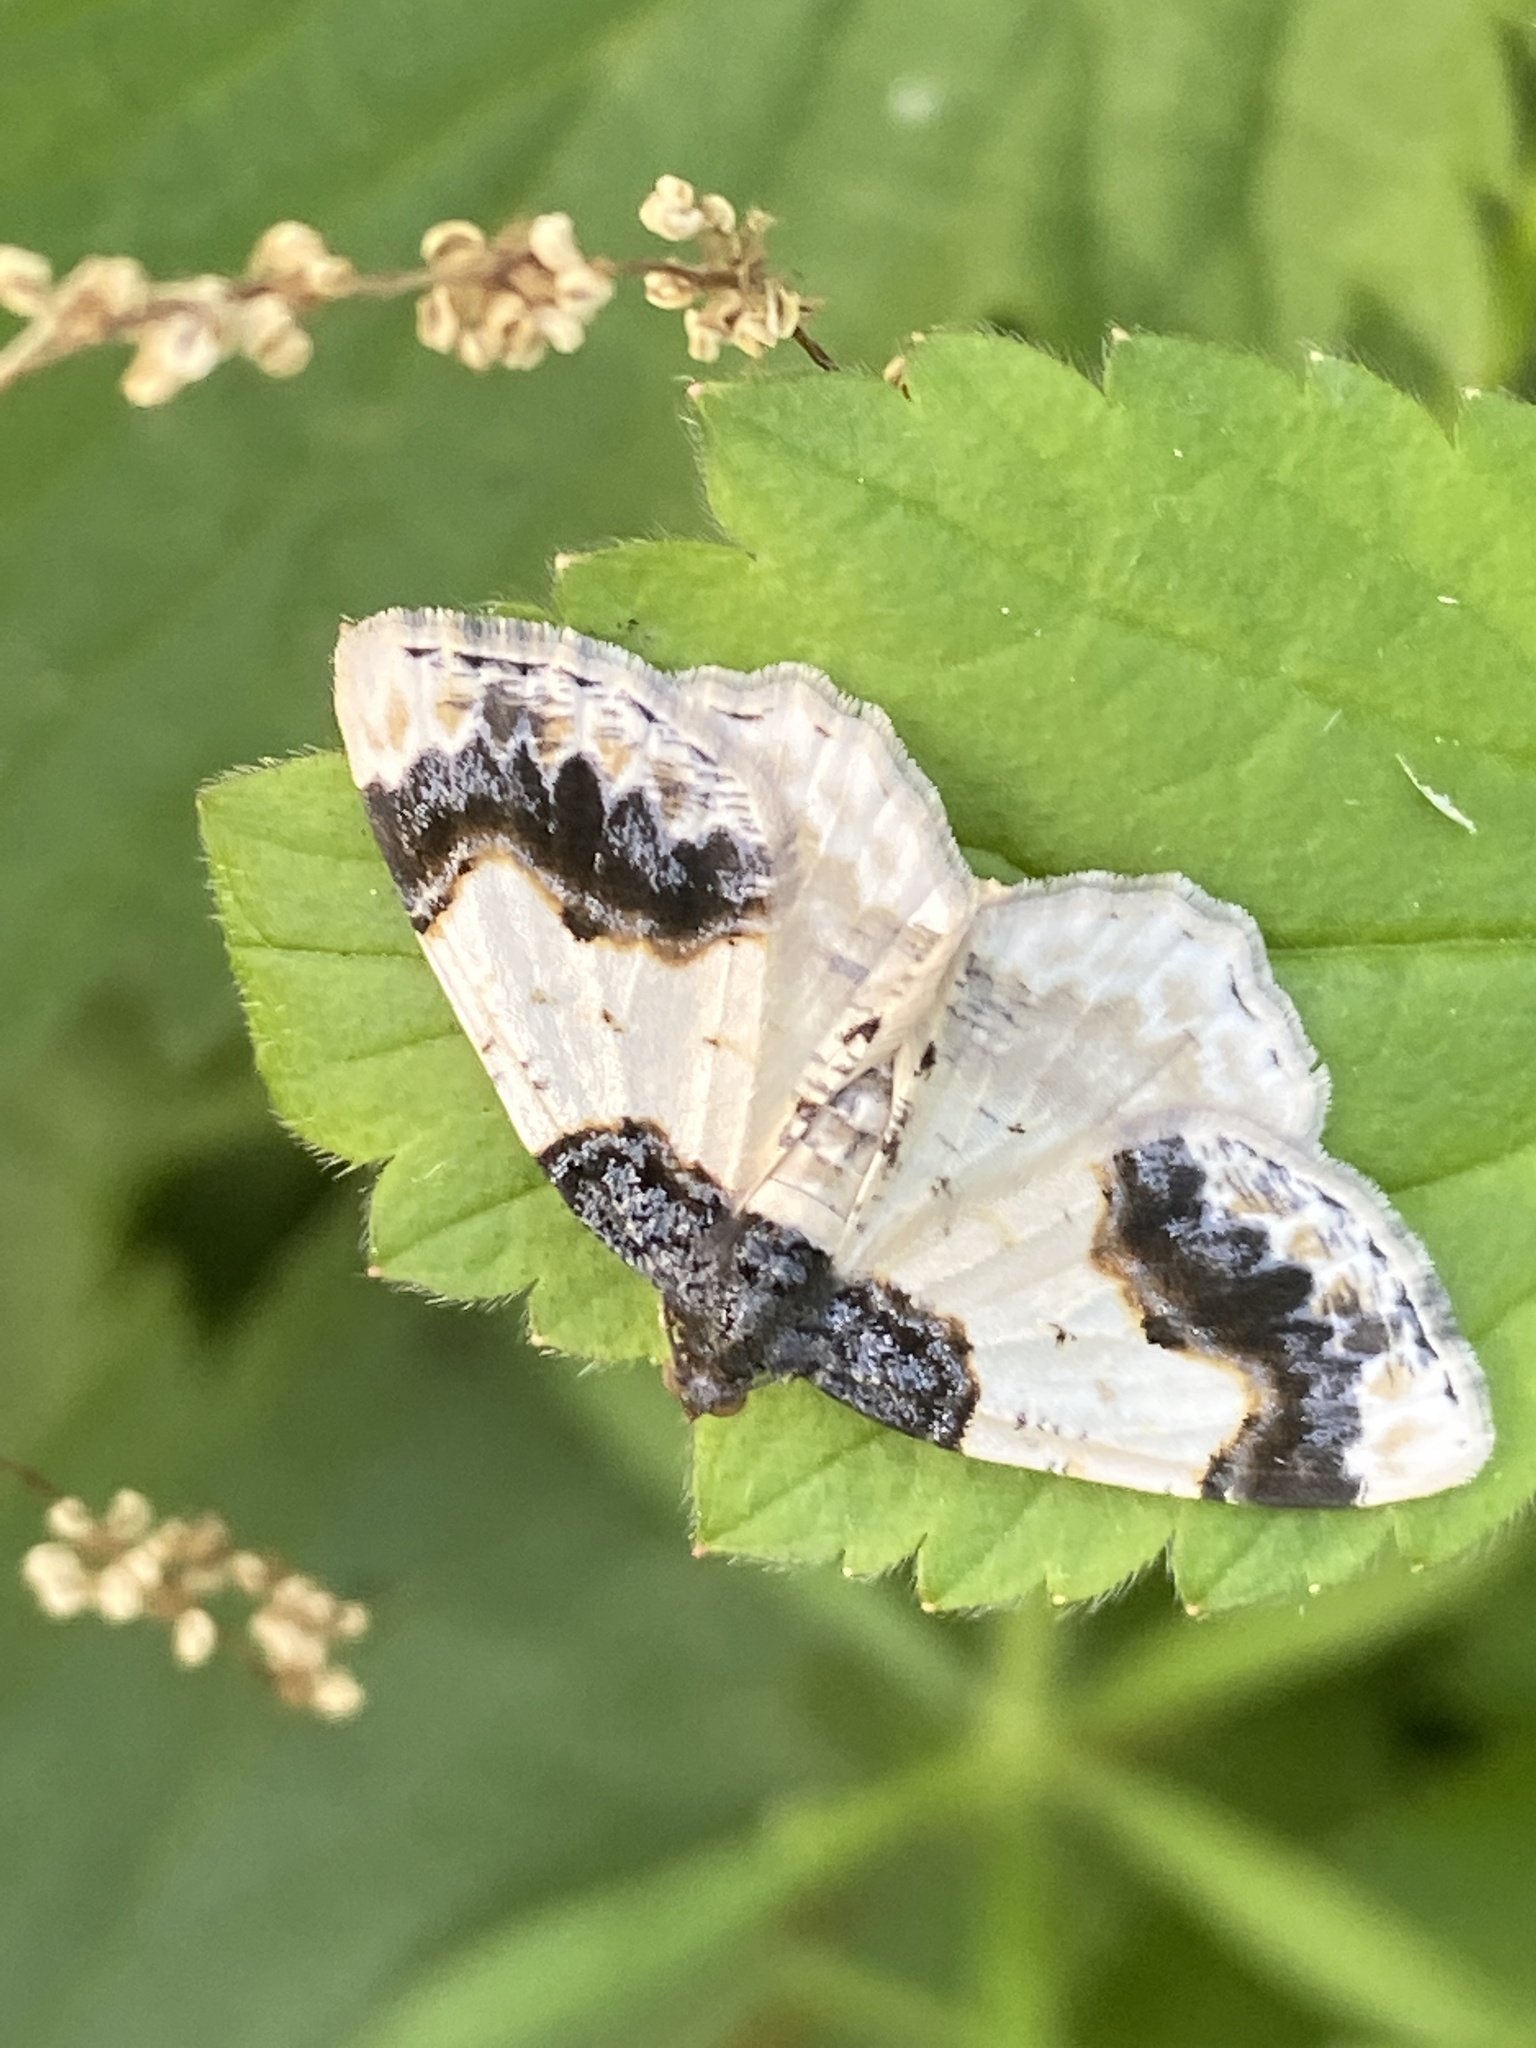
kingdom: Animalia
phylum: Arthropoda
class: Insecta
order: Lepidoptera
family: Geometridae
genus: Ligdia
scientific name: Ligdia adustata
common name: Scorched carpet
